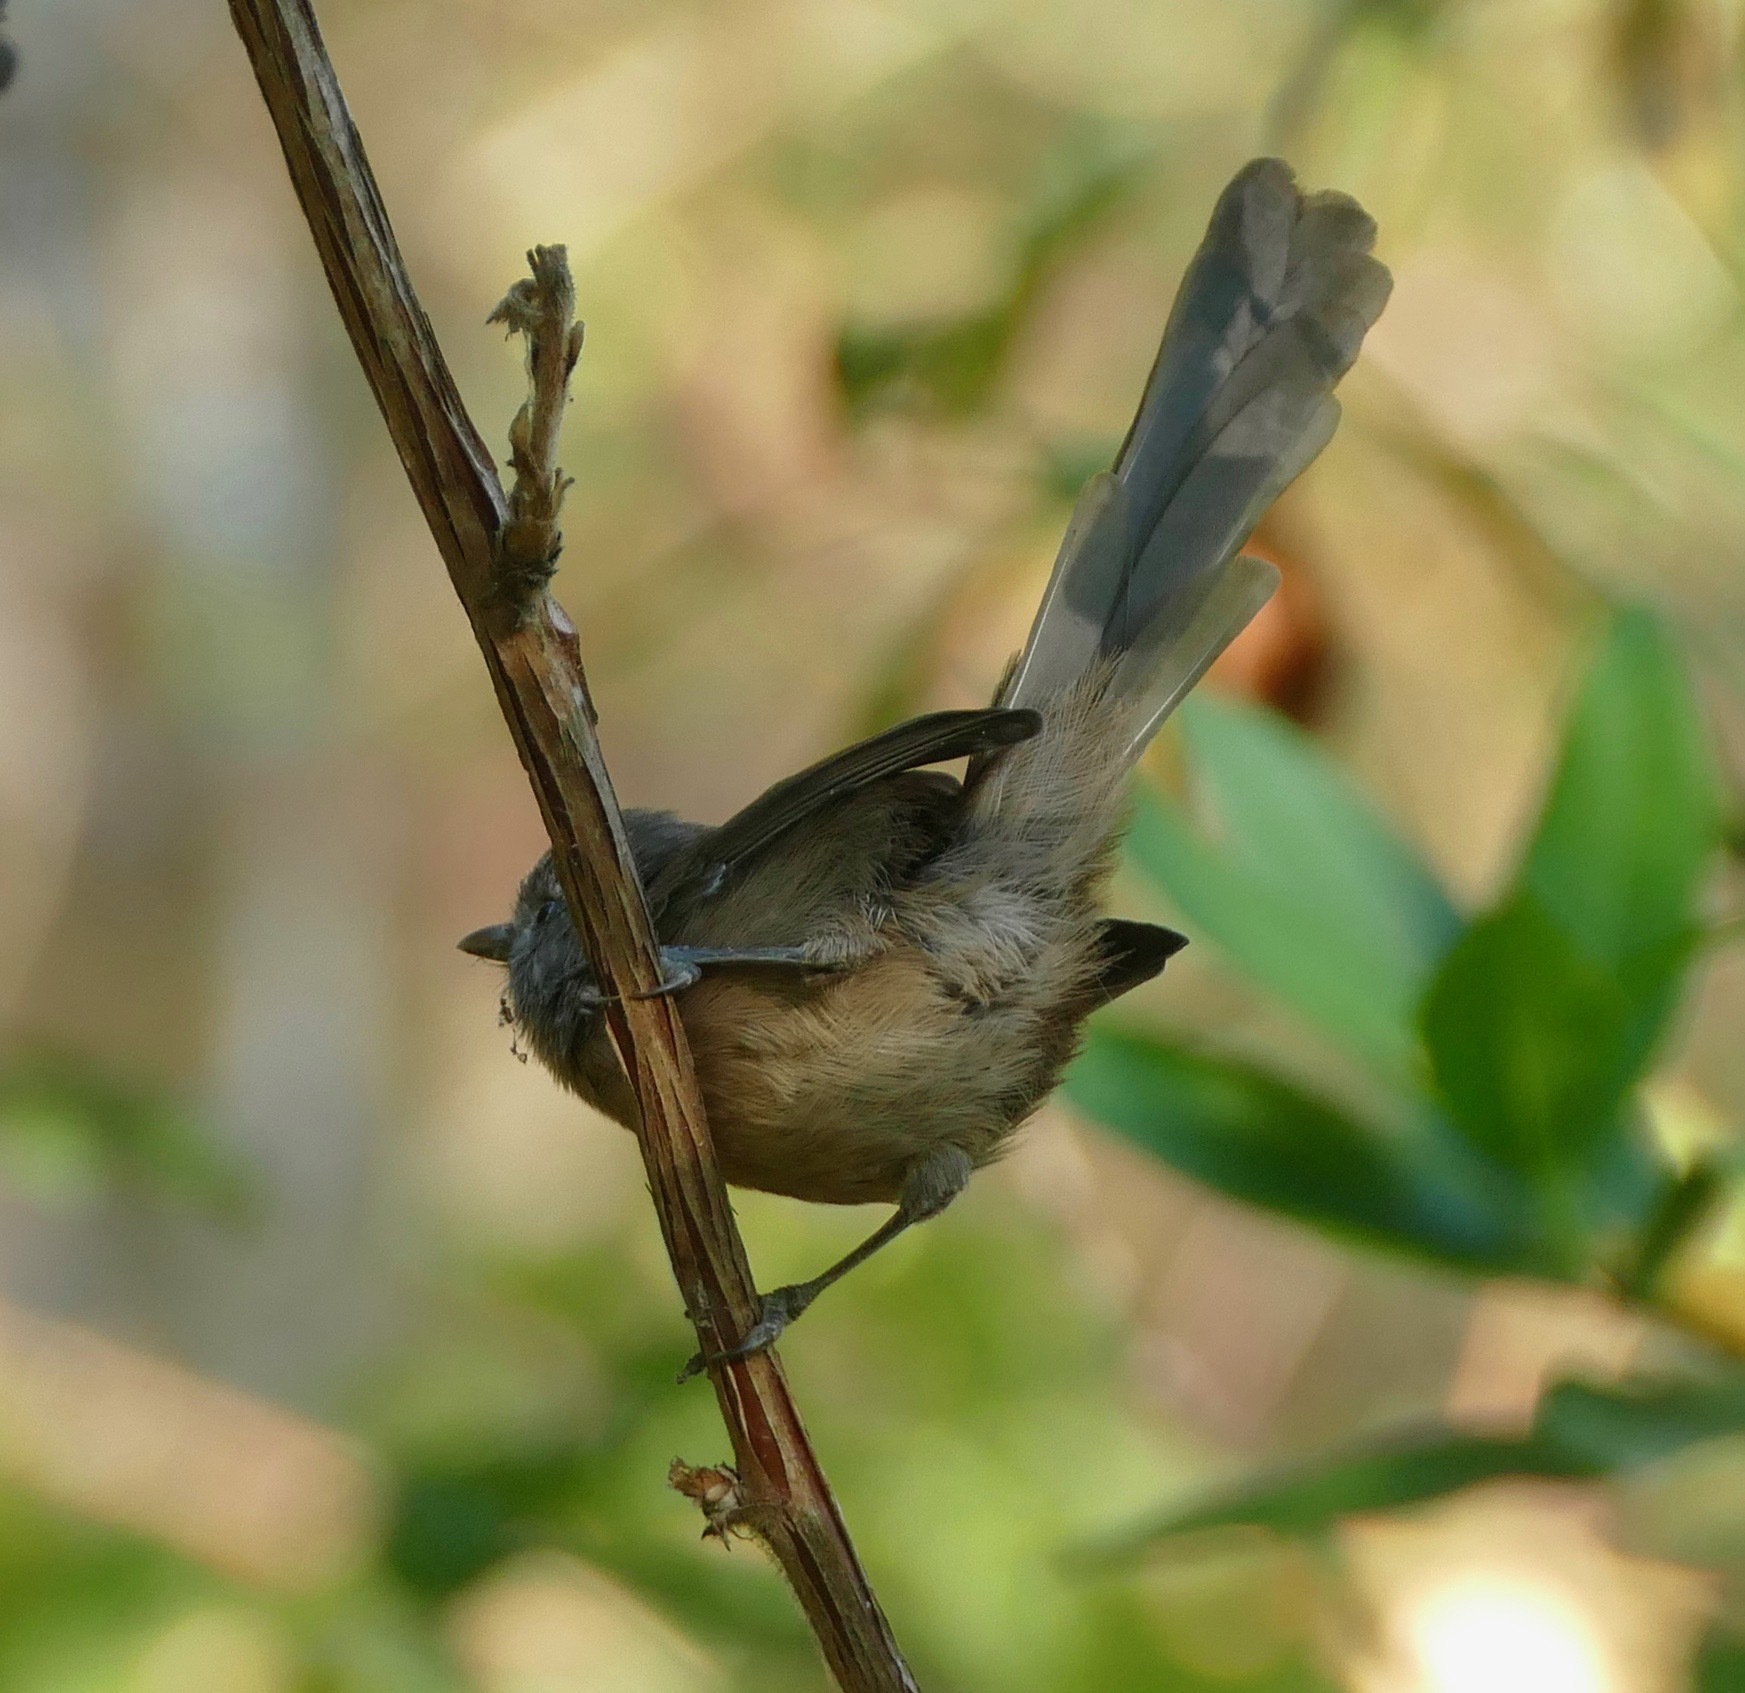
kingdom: Animalia
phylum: Chordata
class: Aves
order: Passeriformes
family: Sylviidae
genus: Chamaea
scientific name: Chamaea fasciata
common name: Wrentit
